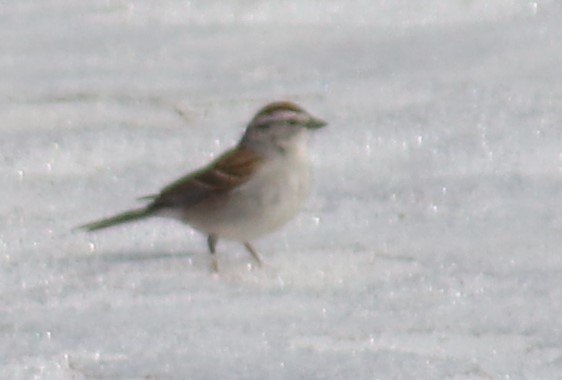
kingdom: Animalia
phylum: Chordata
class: Aves
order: Passeriformes
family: Passerellidae
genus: Spizella
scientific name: Spizella passerina
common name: Chipping sparrow
